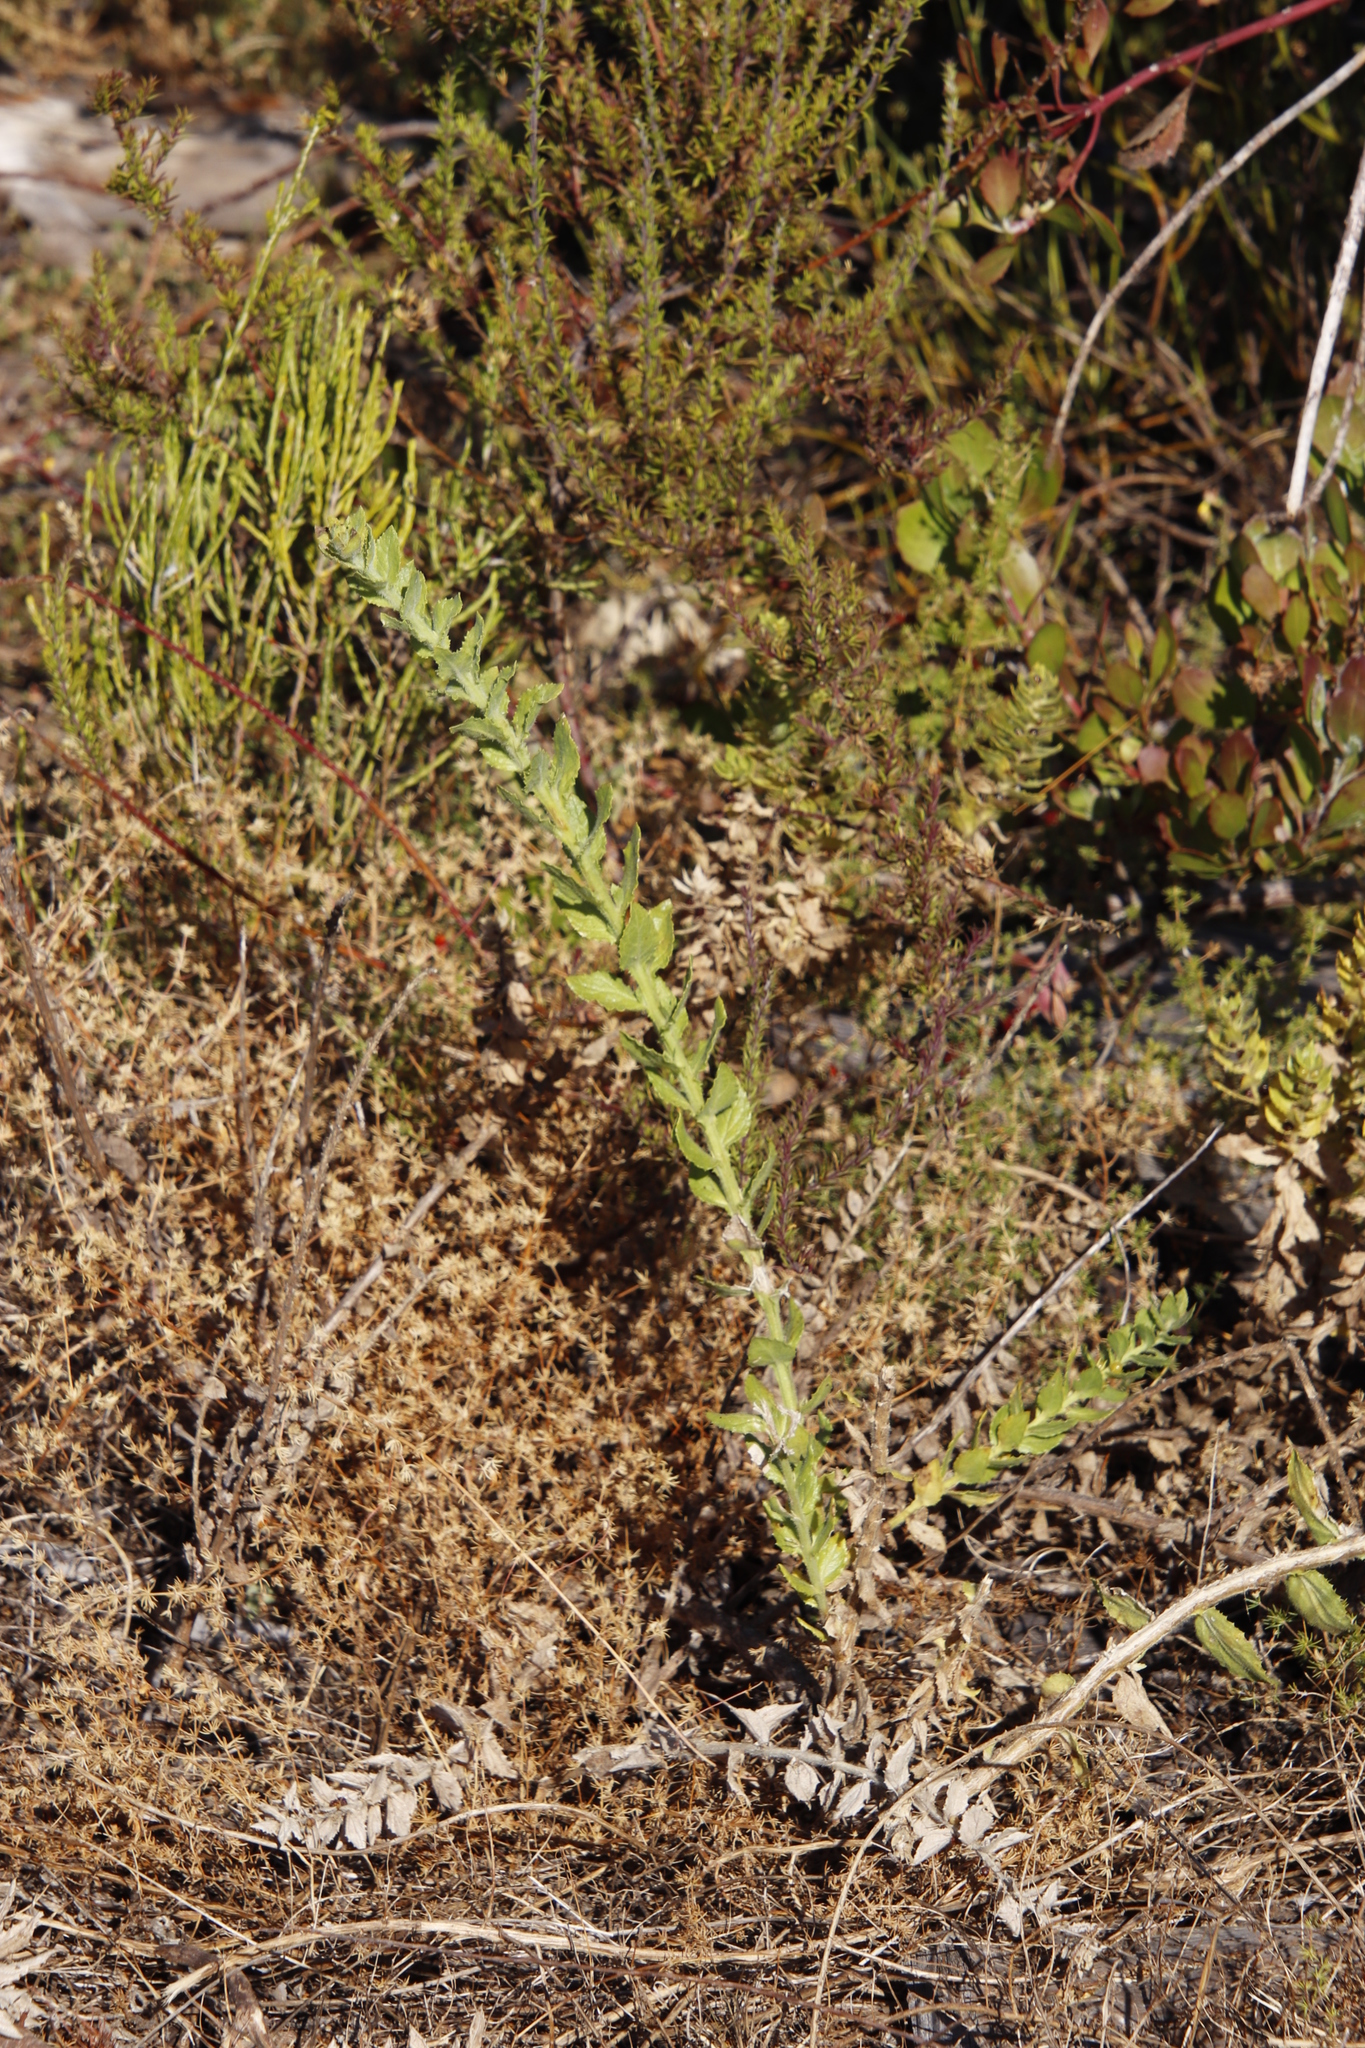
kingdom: Plantae
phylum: Tracheophyta
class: Magnoliopsida
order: Lamiales
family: Scrophulariaceae
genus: Oftia
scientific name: Oftia africana
